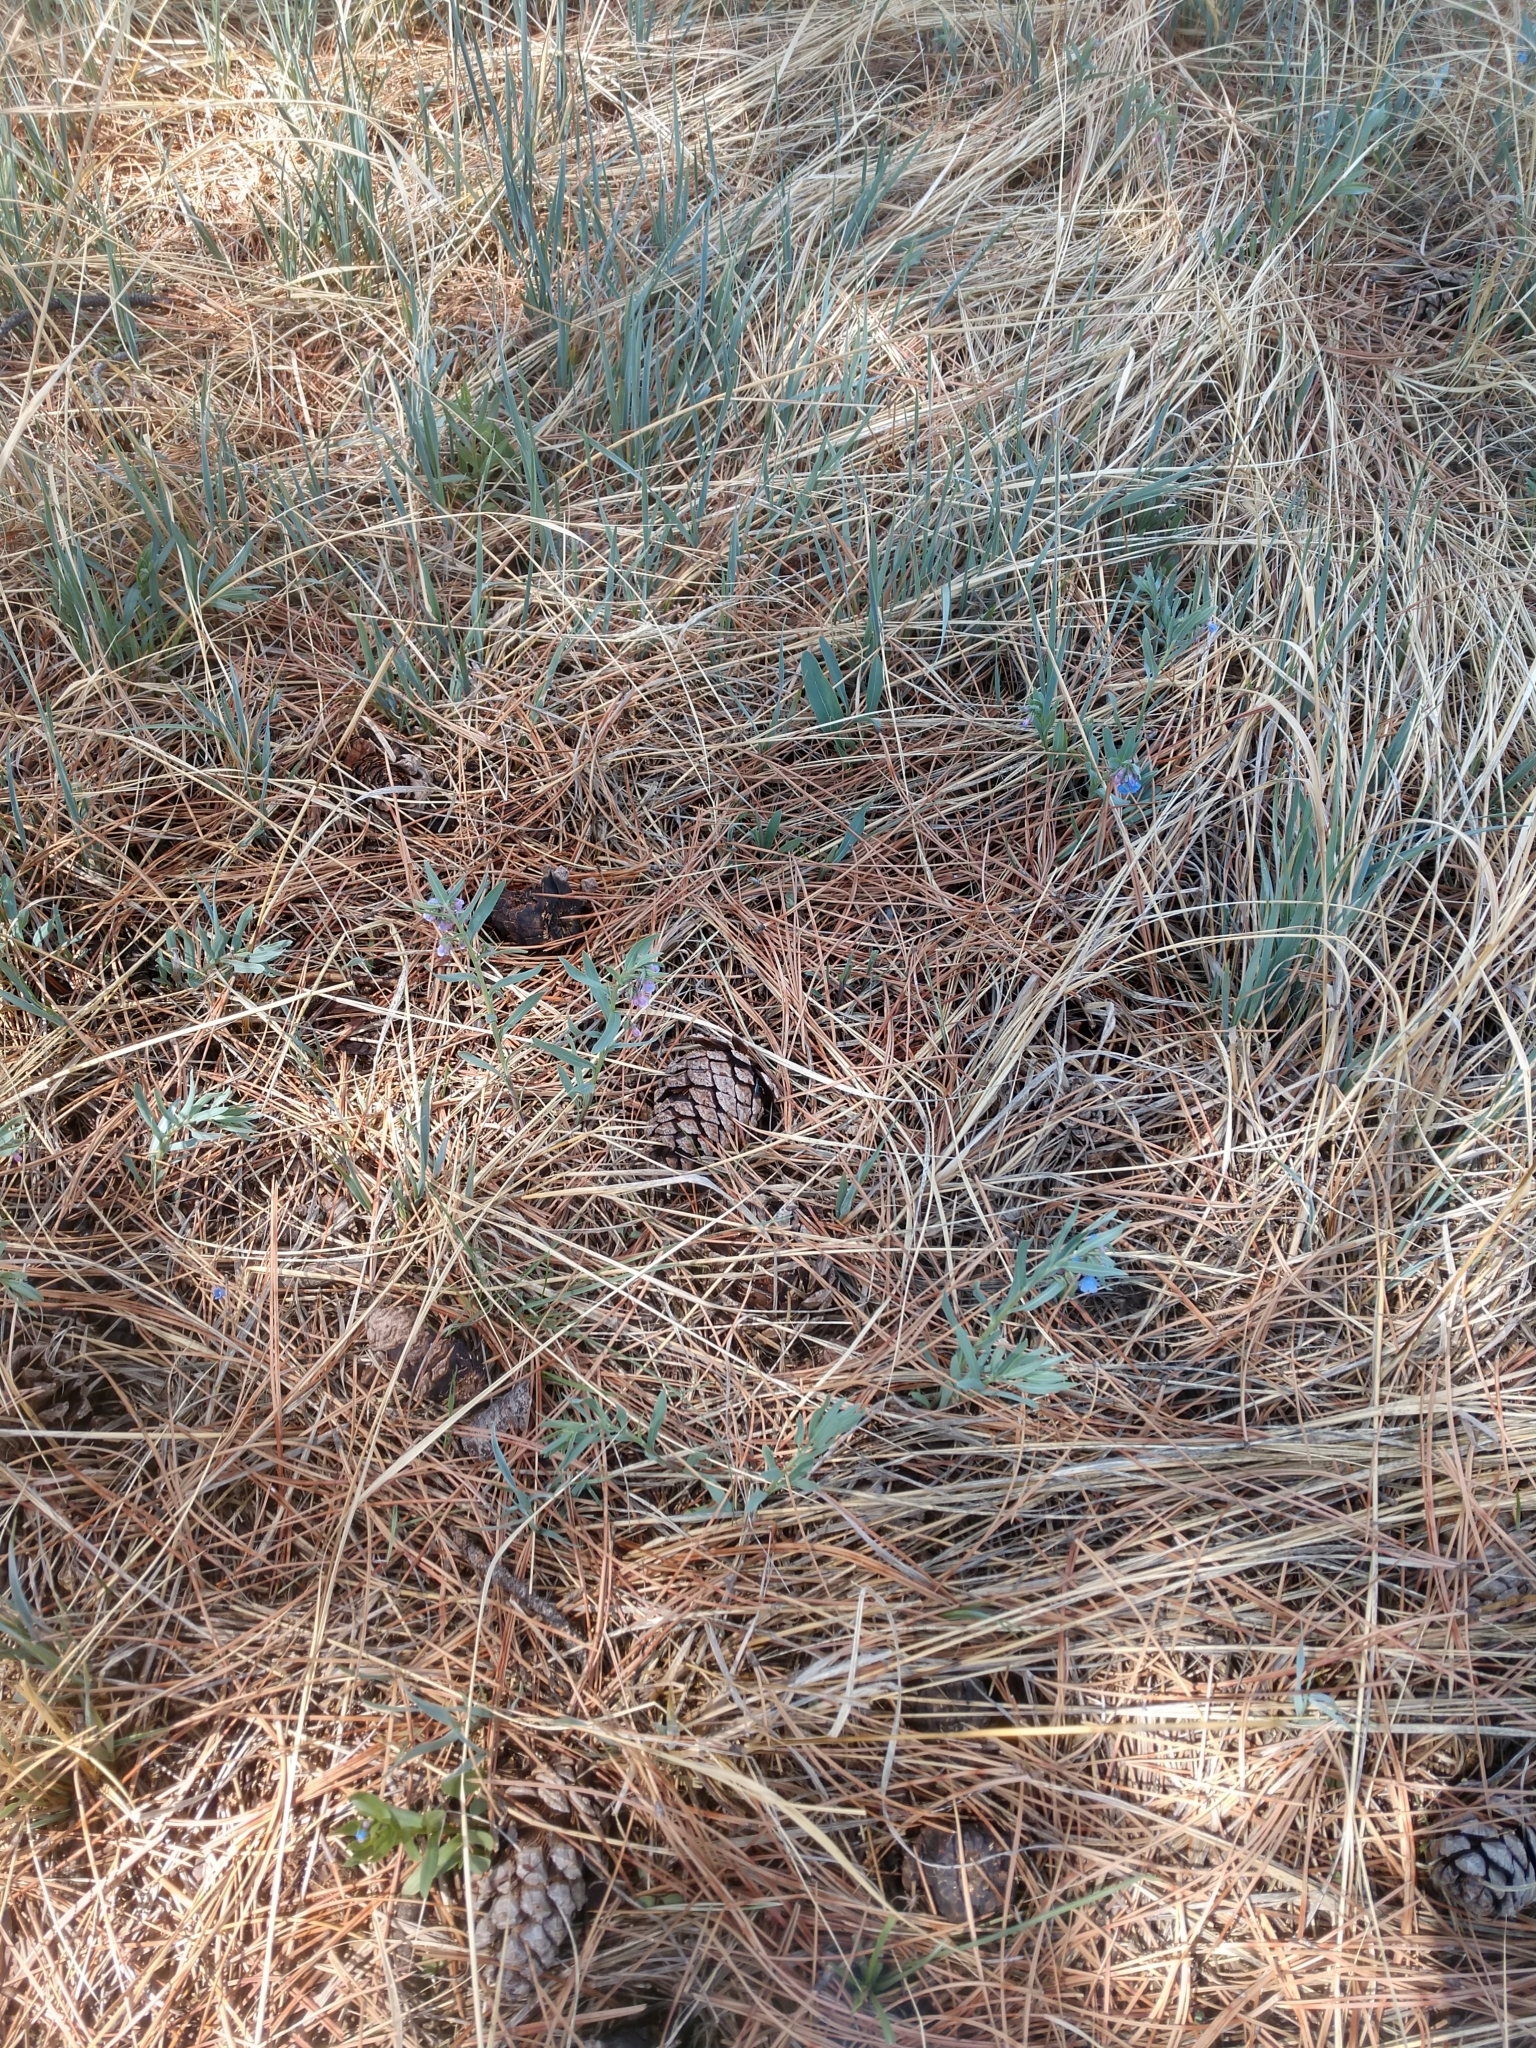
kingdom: Plantae
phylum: Tracheophyta
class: Magnoliopsida
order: Boraginales
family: Boraginaceae
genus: Mertensia
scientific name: Mertensia lanceolata
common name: Lance-leaved bluebells
